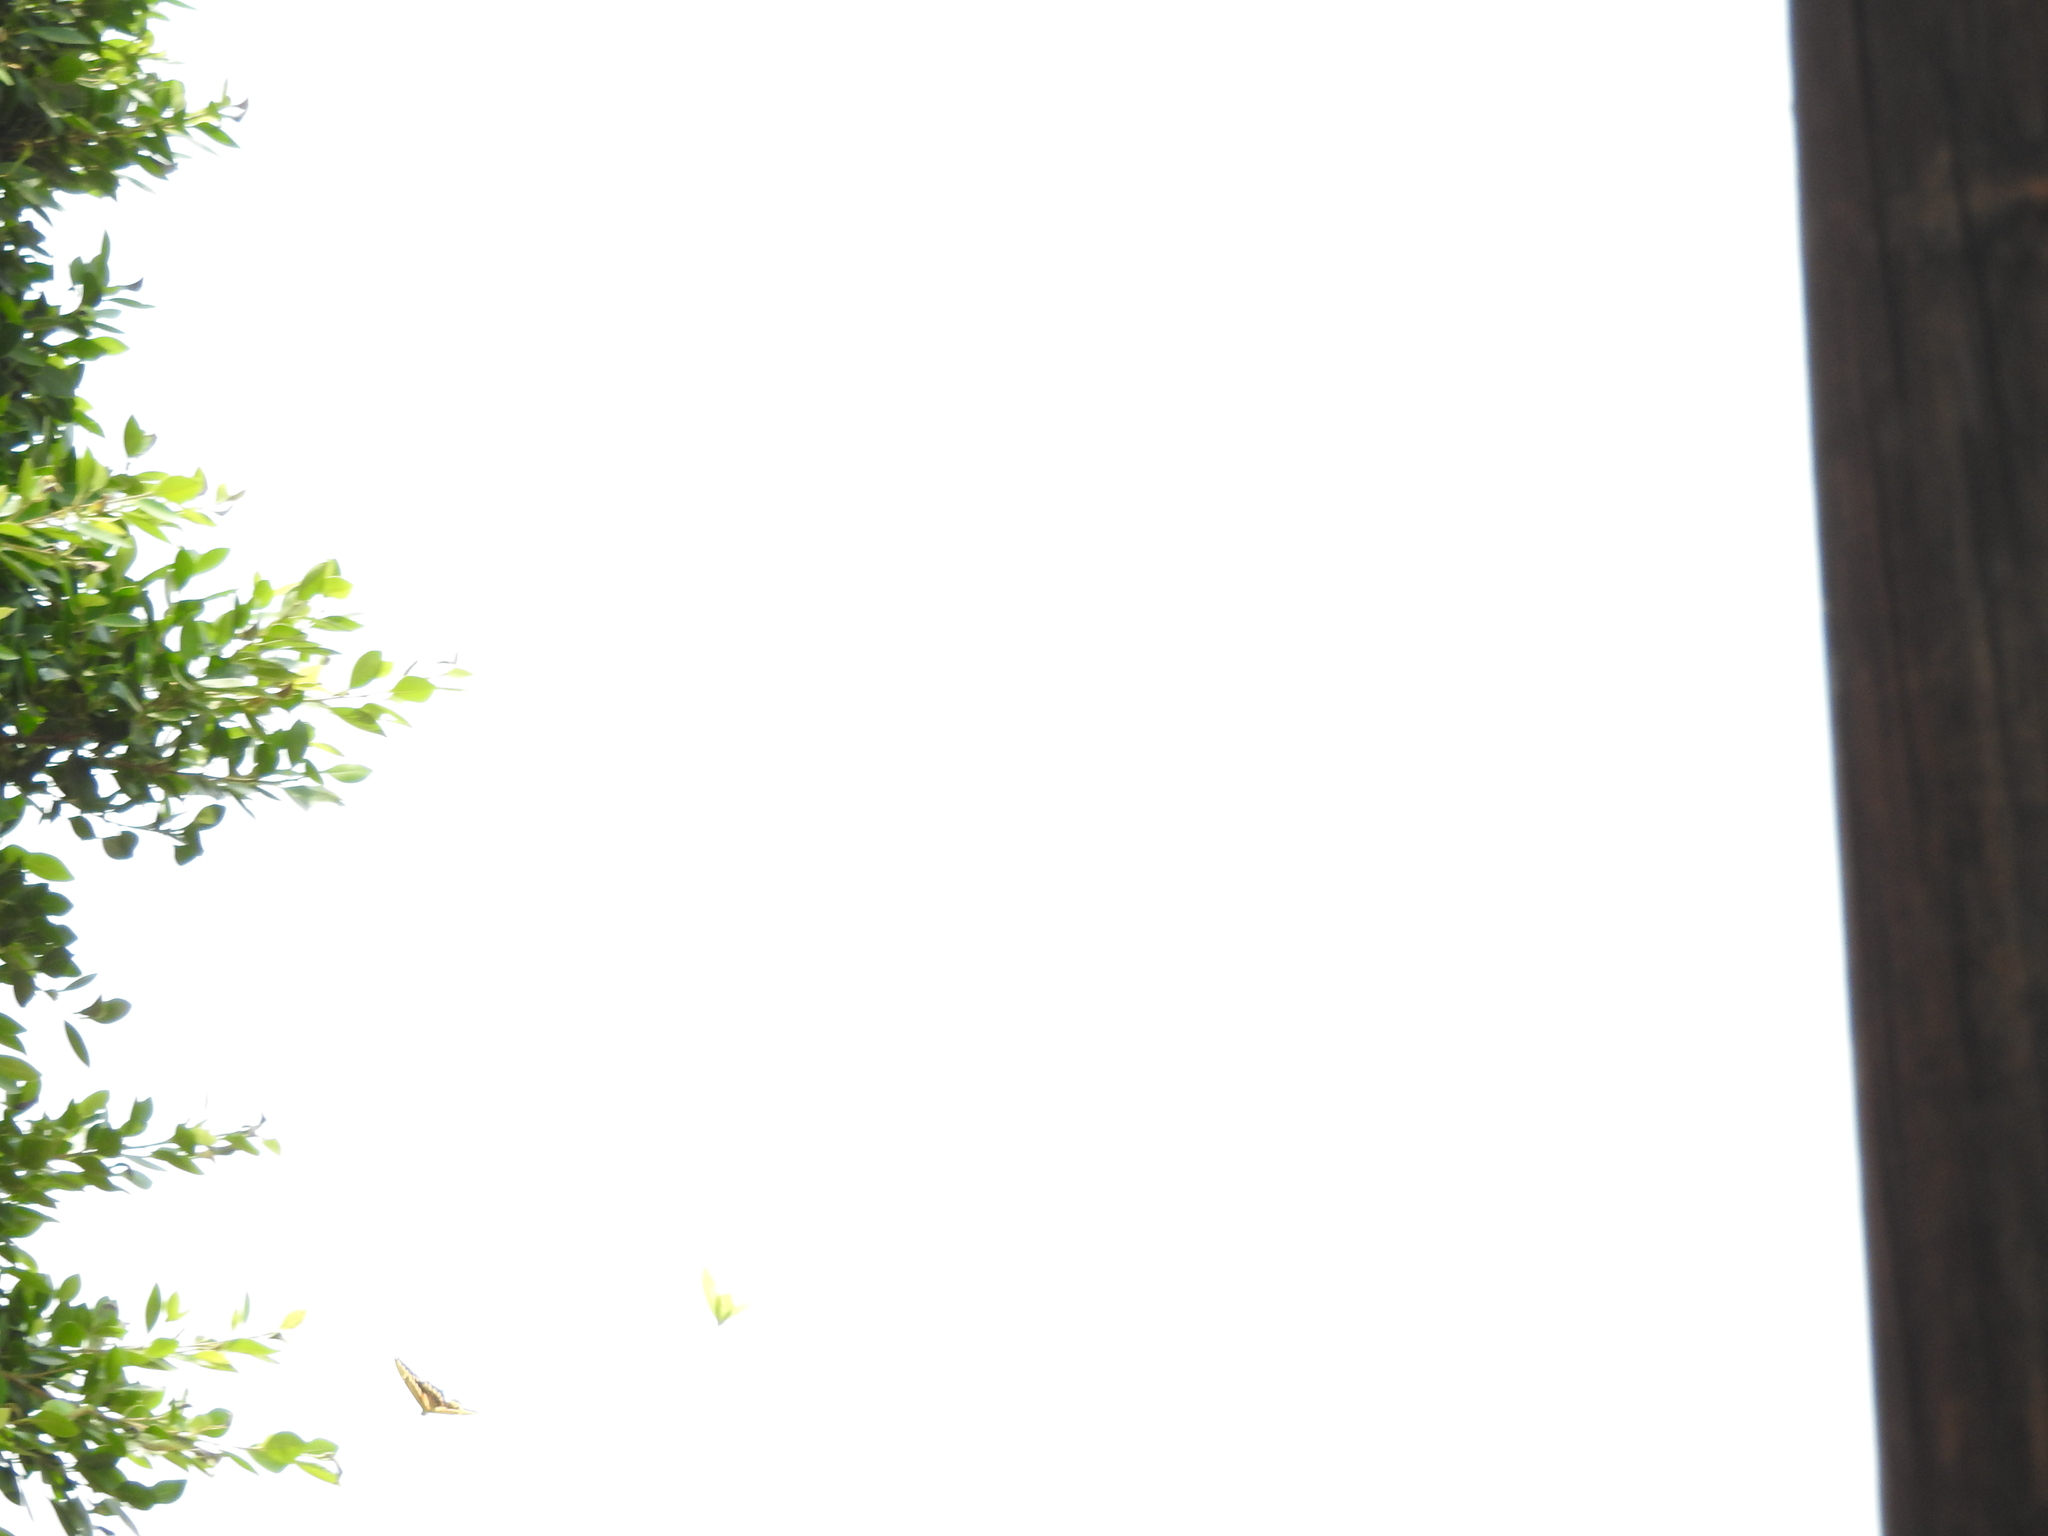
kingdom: Animalia
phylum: Arthropoda
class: Insecta
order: Lepidoptera
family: Papilionidae
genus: Papilio
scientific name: Papilio rumiko
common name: Western giant swallowtail
